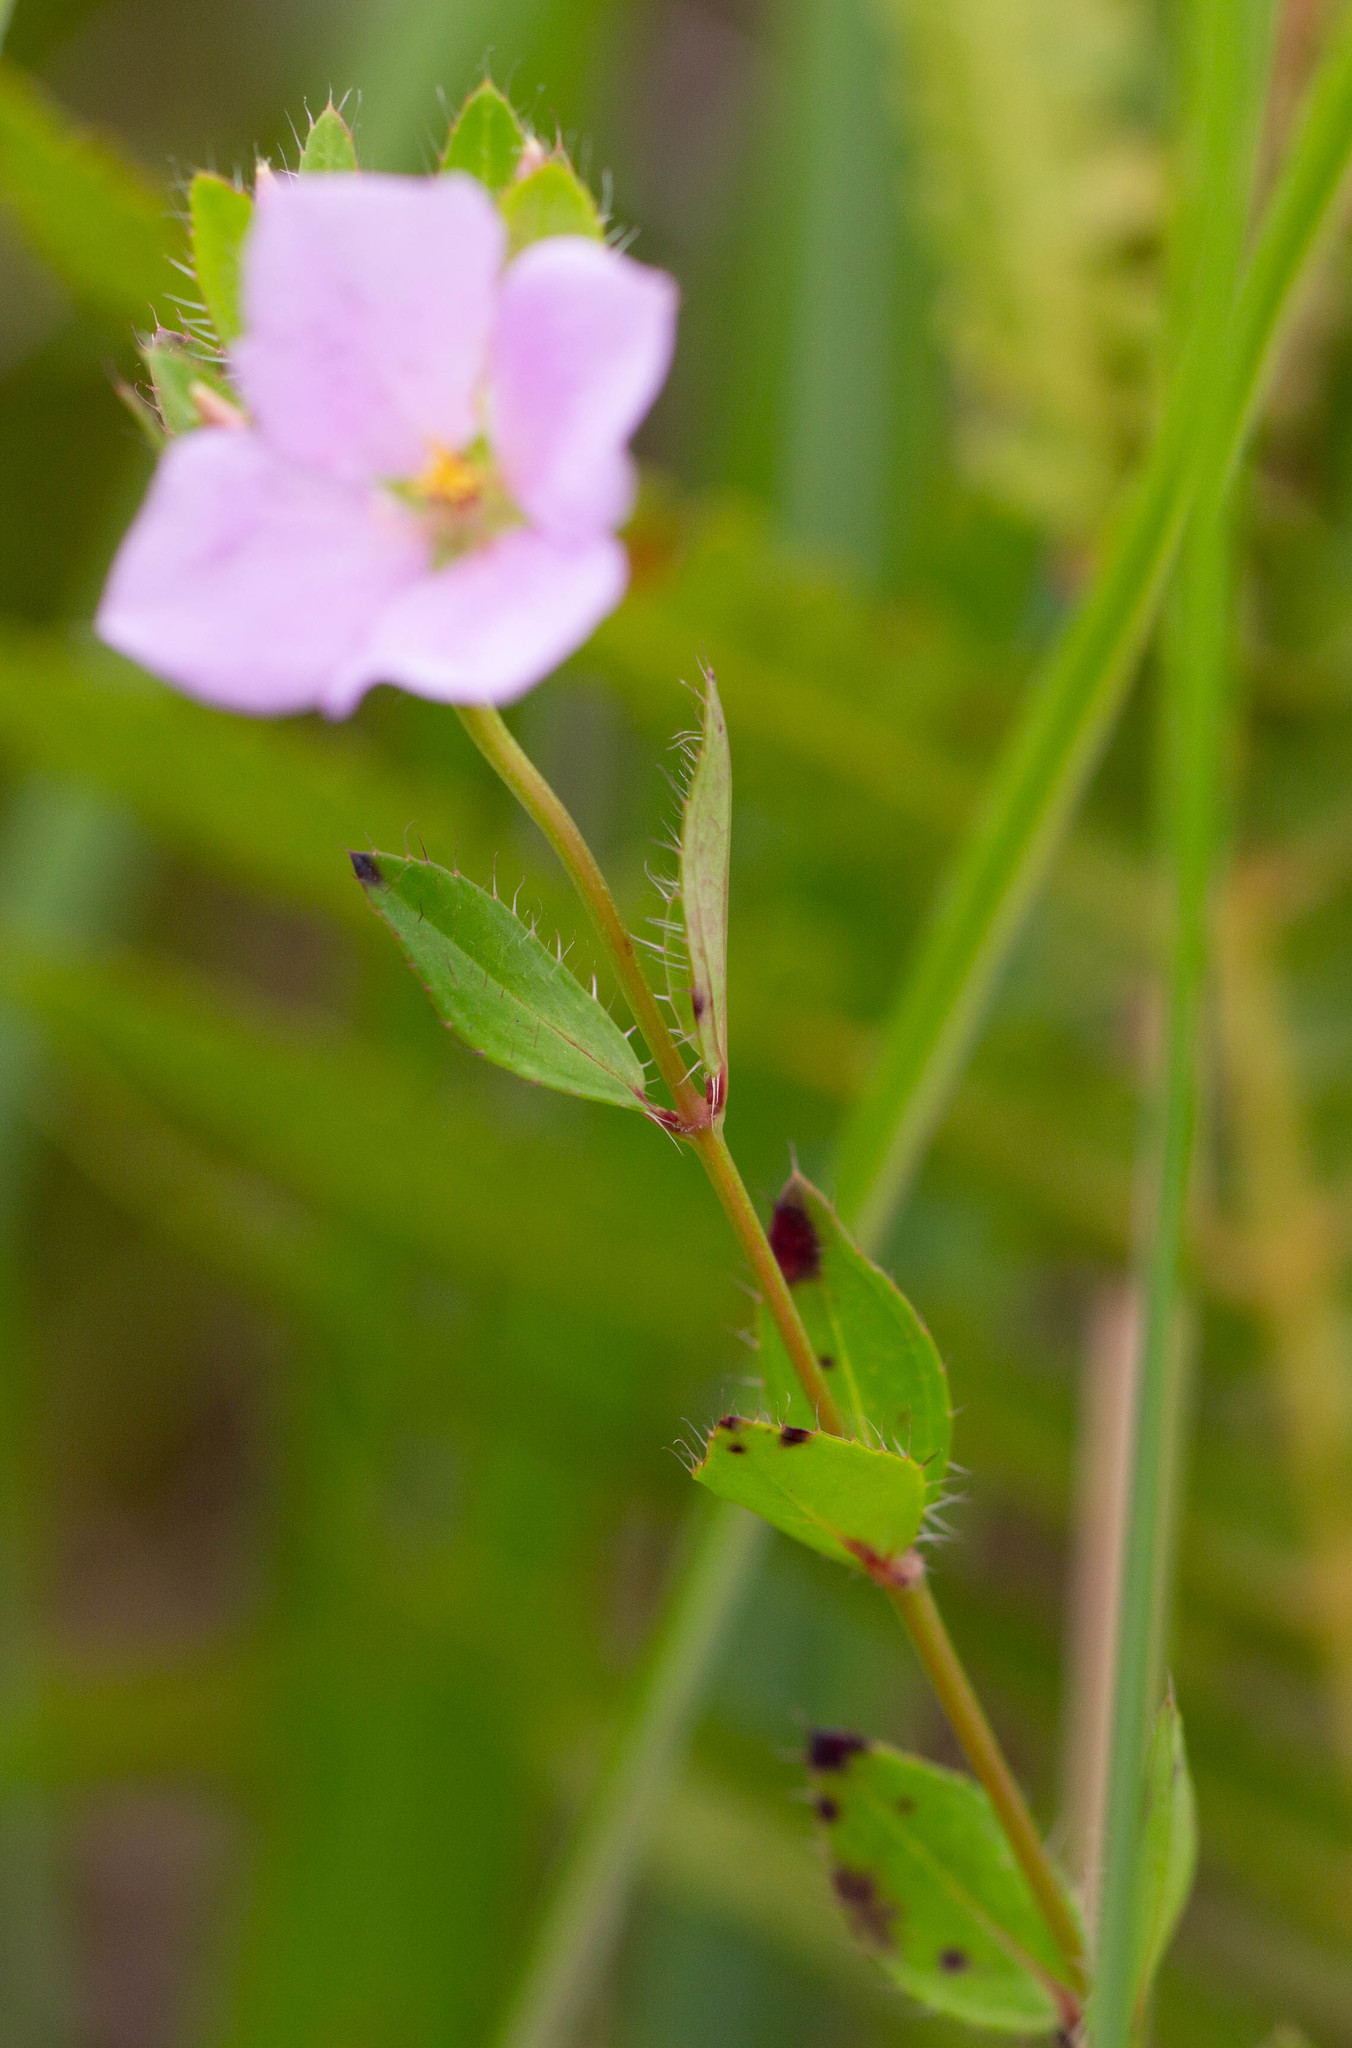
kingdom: Plantae
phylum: Tracheophyta
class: Magnoliopsida
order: Myrtales
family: Melastomataceae
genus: Rhexia
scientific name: Rhexia petiolata
